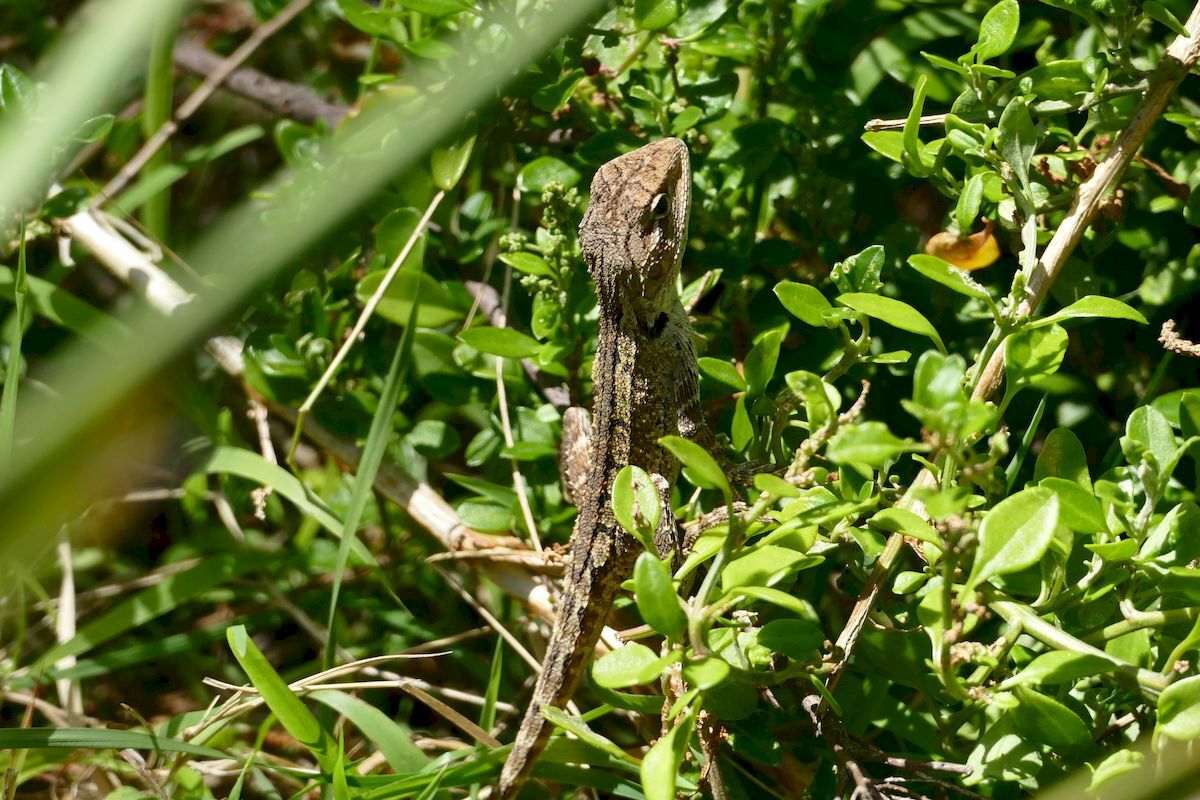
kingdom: Animalia
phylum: Chordata
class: Squamata
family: Agamidae
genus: Amphibolurus
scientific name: Amphibolurus muricatus
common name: Jacky lizard
